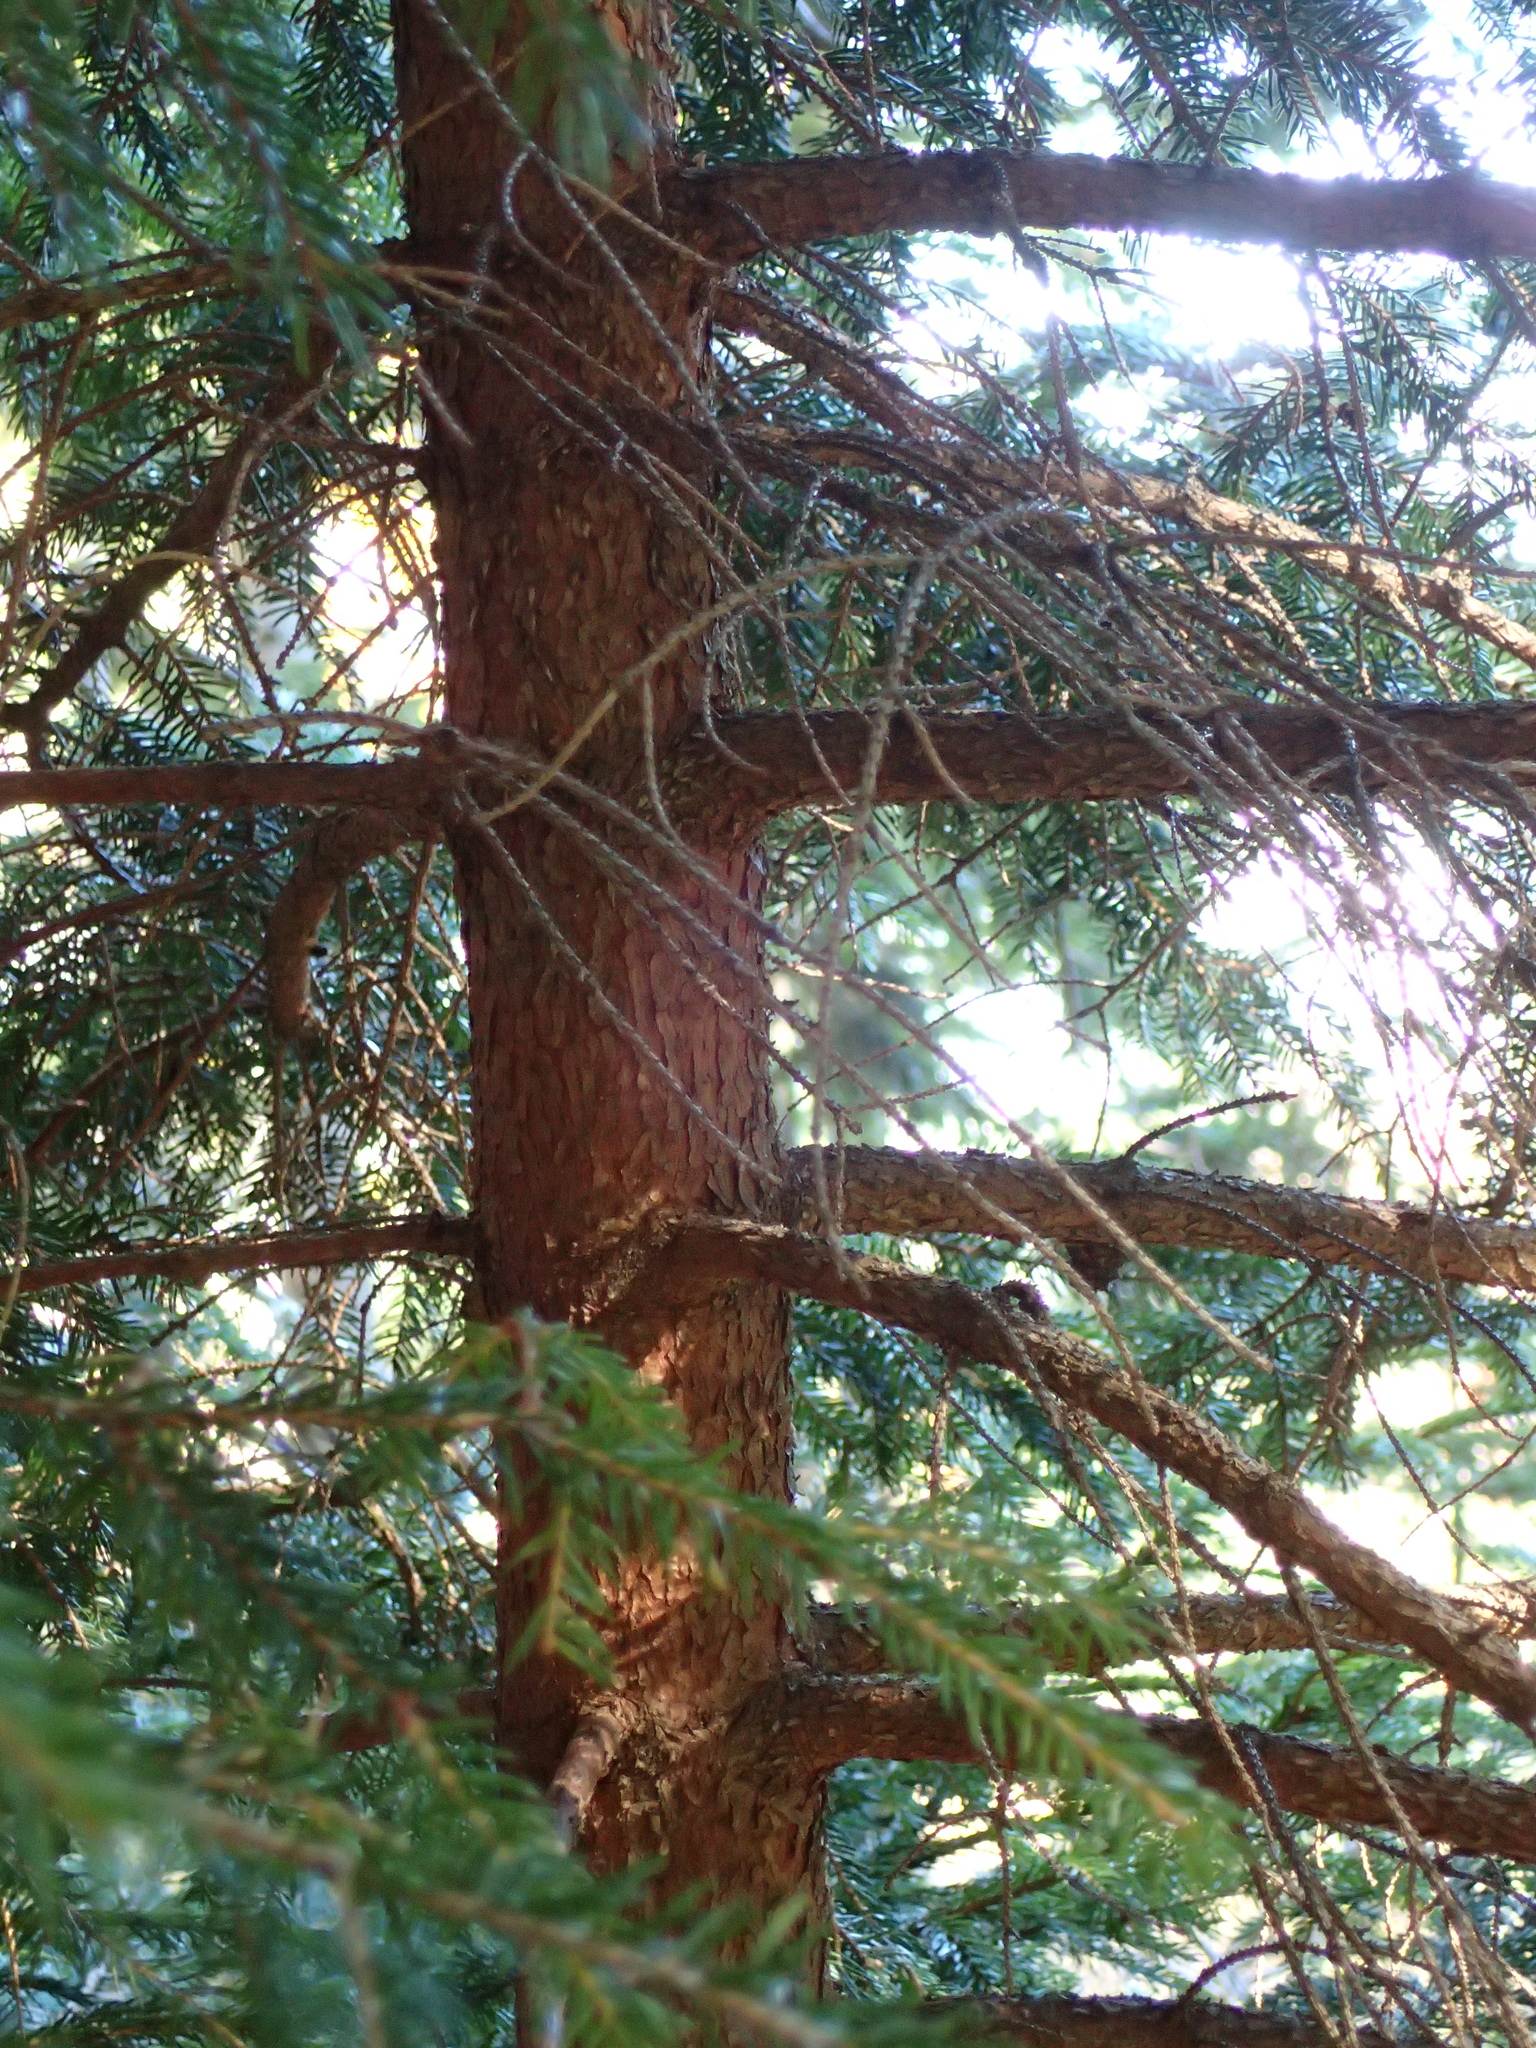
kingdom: Plantae
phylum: Tracheophyta
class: Pinopsida
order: Pinales
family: Pinaceae
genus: Picea
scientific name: Picea abies
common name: Norway spruce
